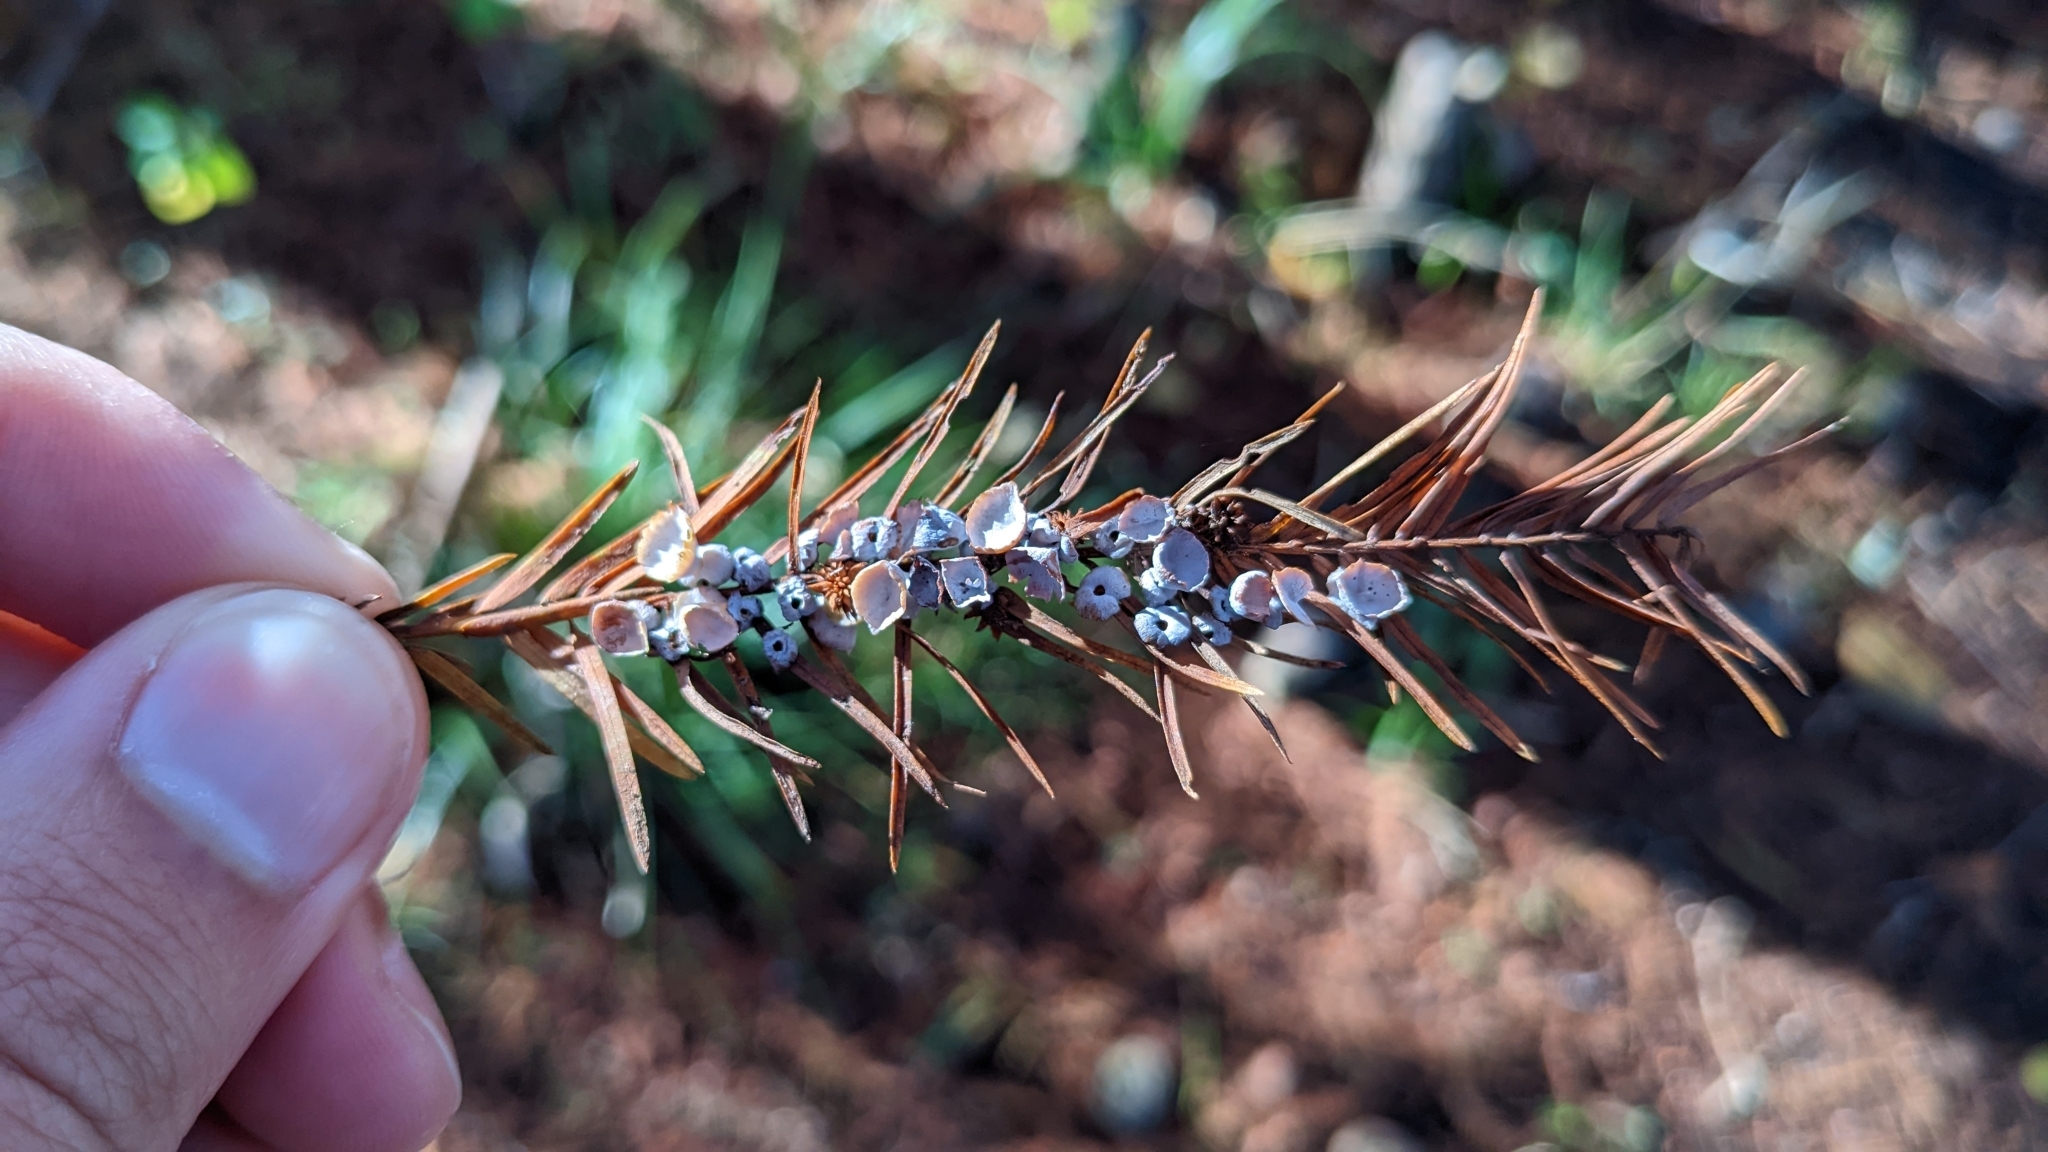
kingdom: Animalia
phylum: Arthropoda
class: Insecta
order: Diptera
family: Cecidomyiidae
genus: Taxodiomyia
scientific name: Taxodiomyia cupressi
